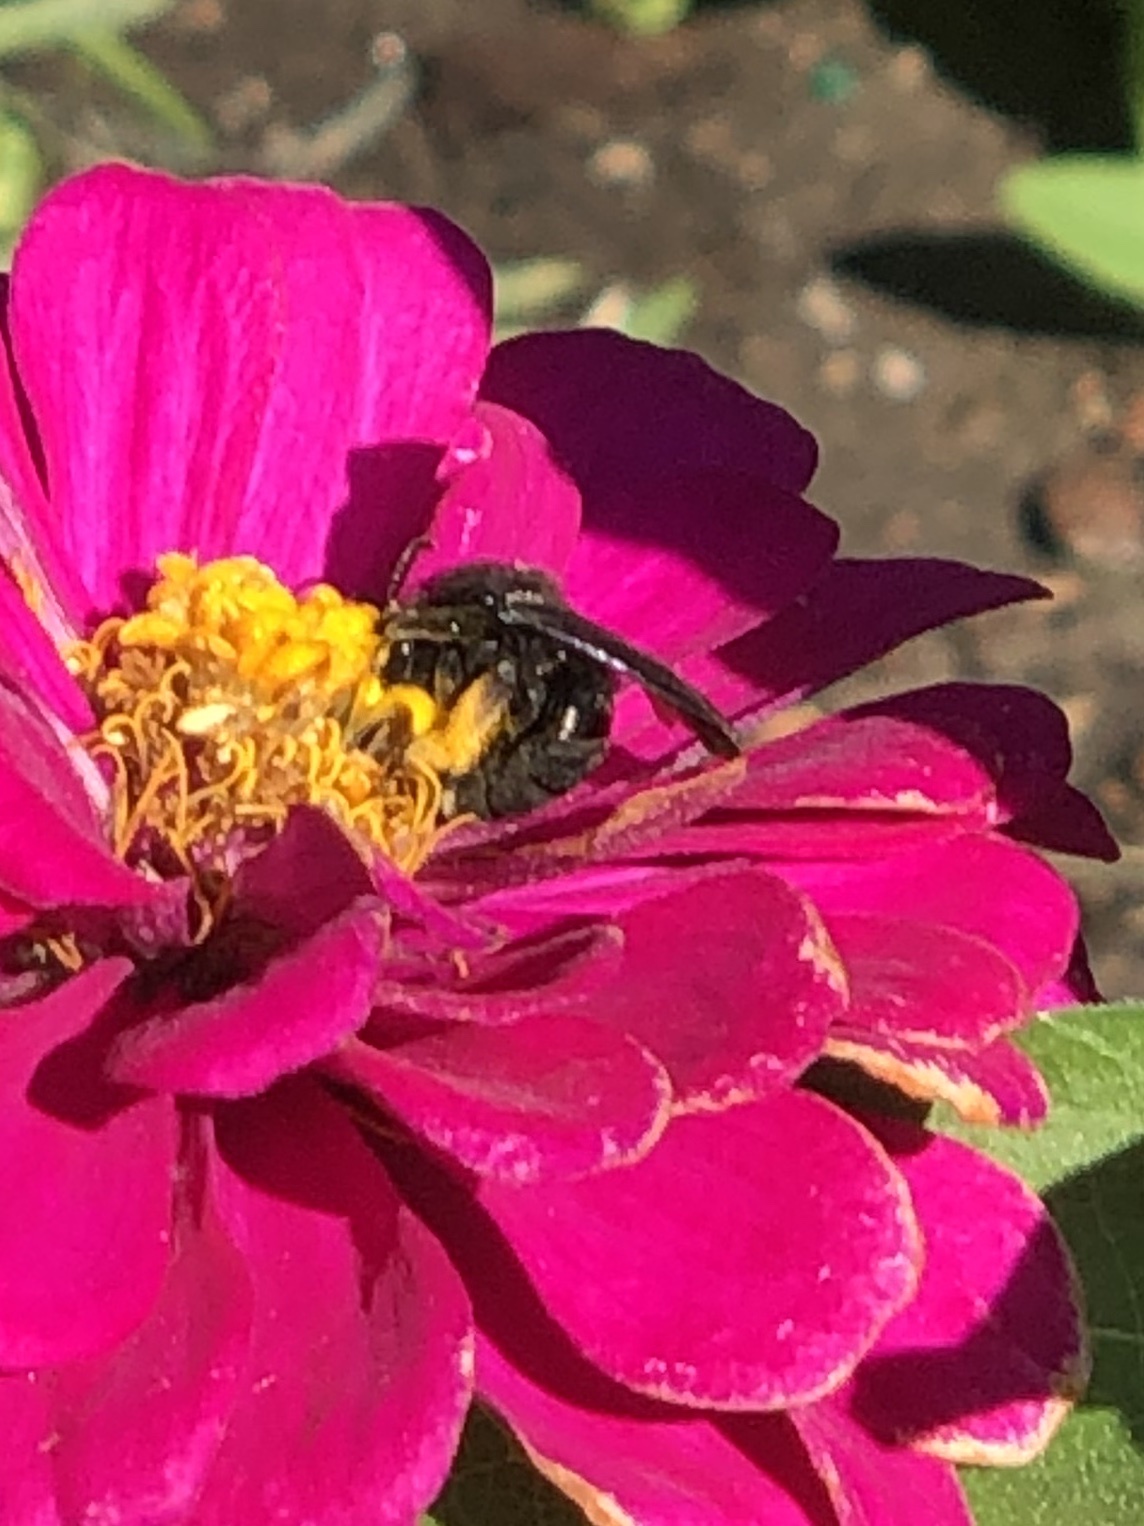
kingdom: Animalia
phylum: Arthropoda
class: Insecta
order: Hymenoptera
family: Apidae
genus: Melissodes
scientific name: Melissodes bimaculatus
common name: Two-spotted long-horned bee
